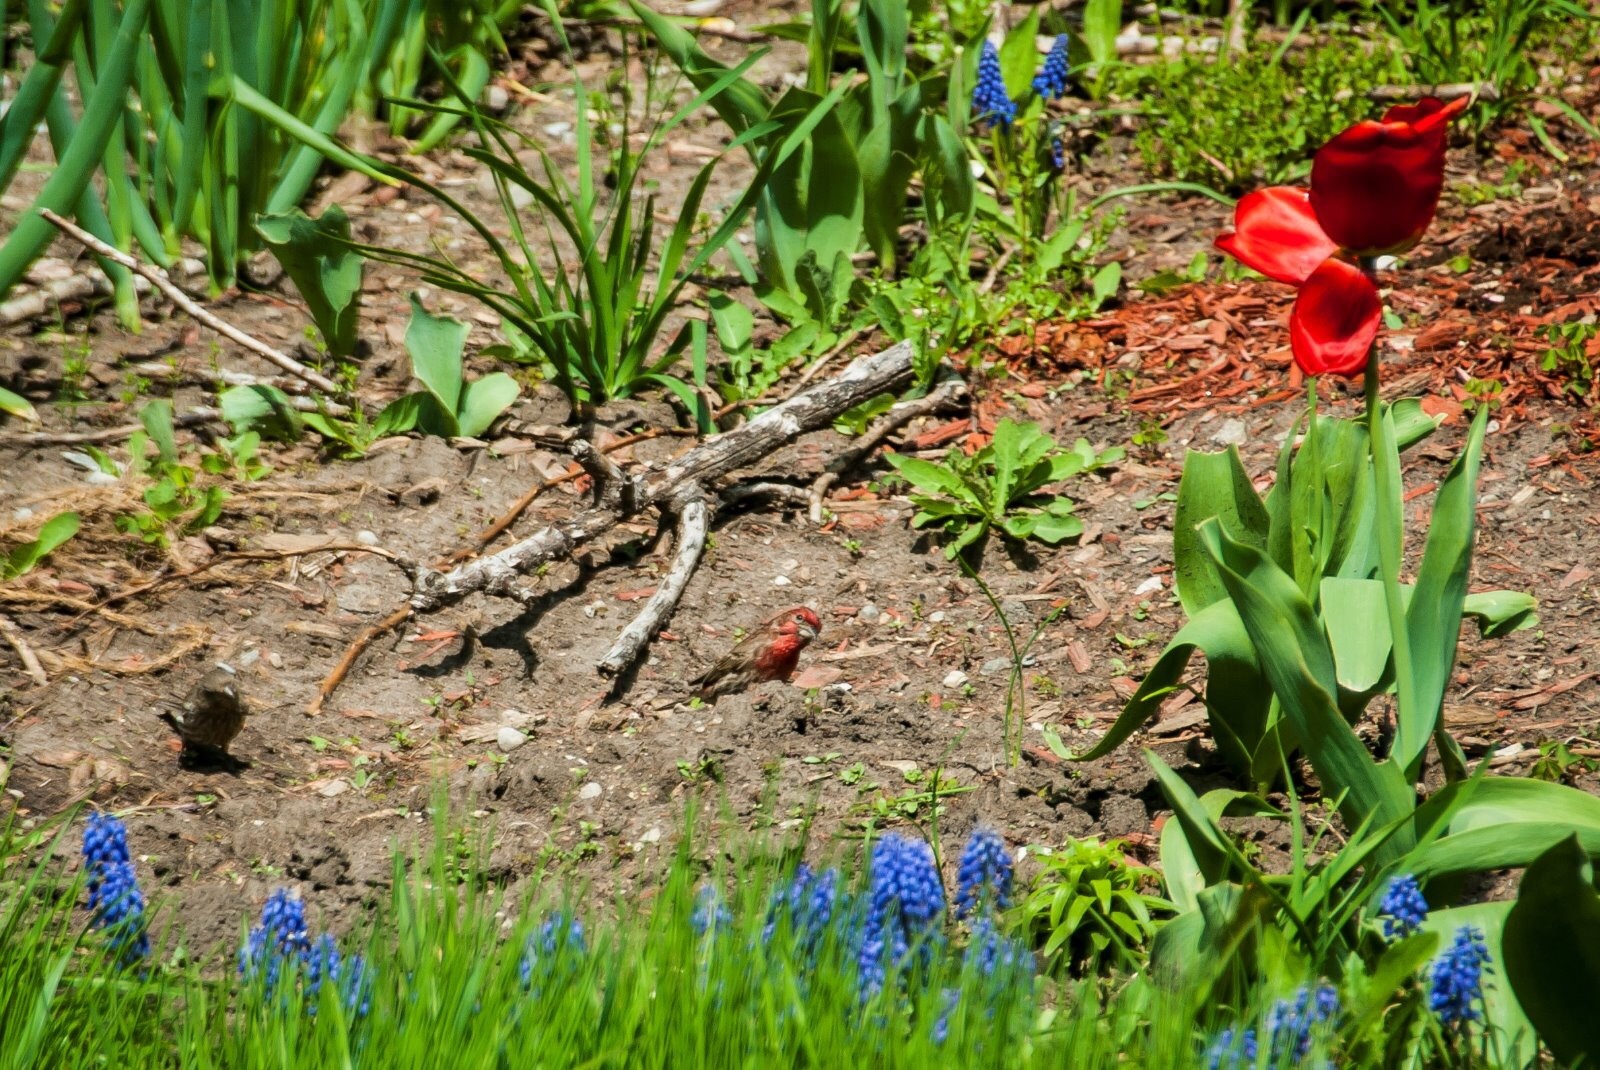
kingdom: Animalia
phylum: Chordata
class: Aves
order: Passeriformes
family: Fringillidae
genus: Haemorhous
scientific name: Haemorhous mexicanus
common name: House finch
